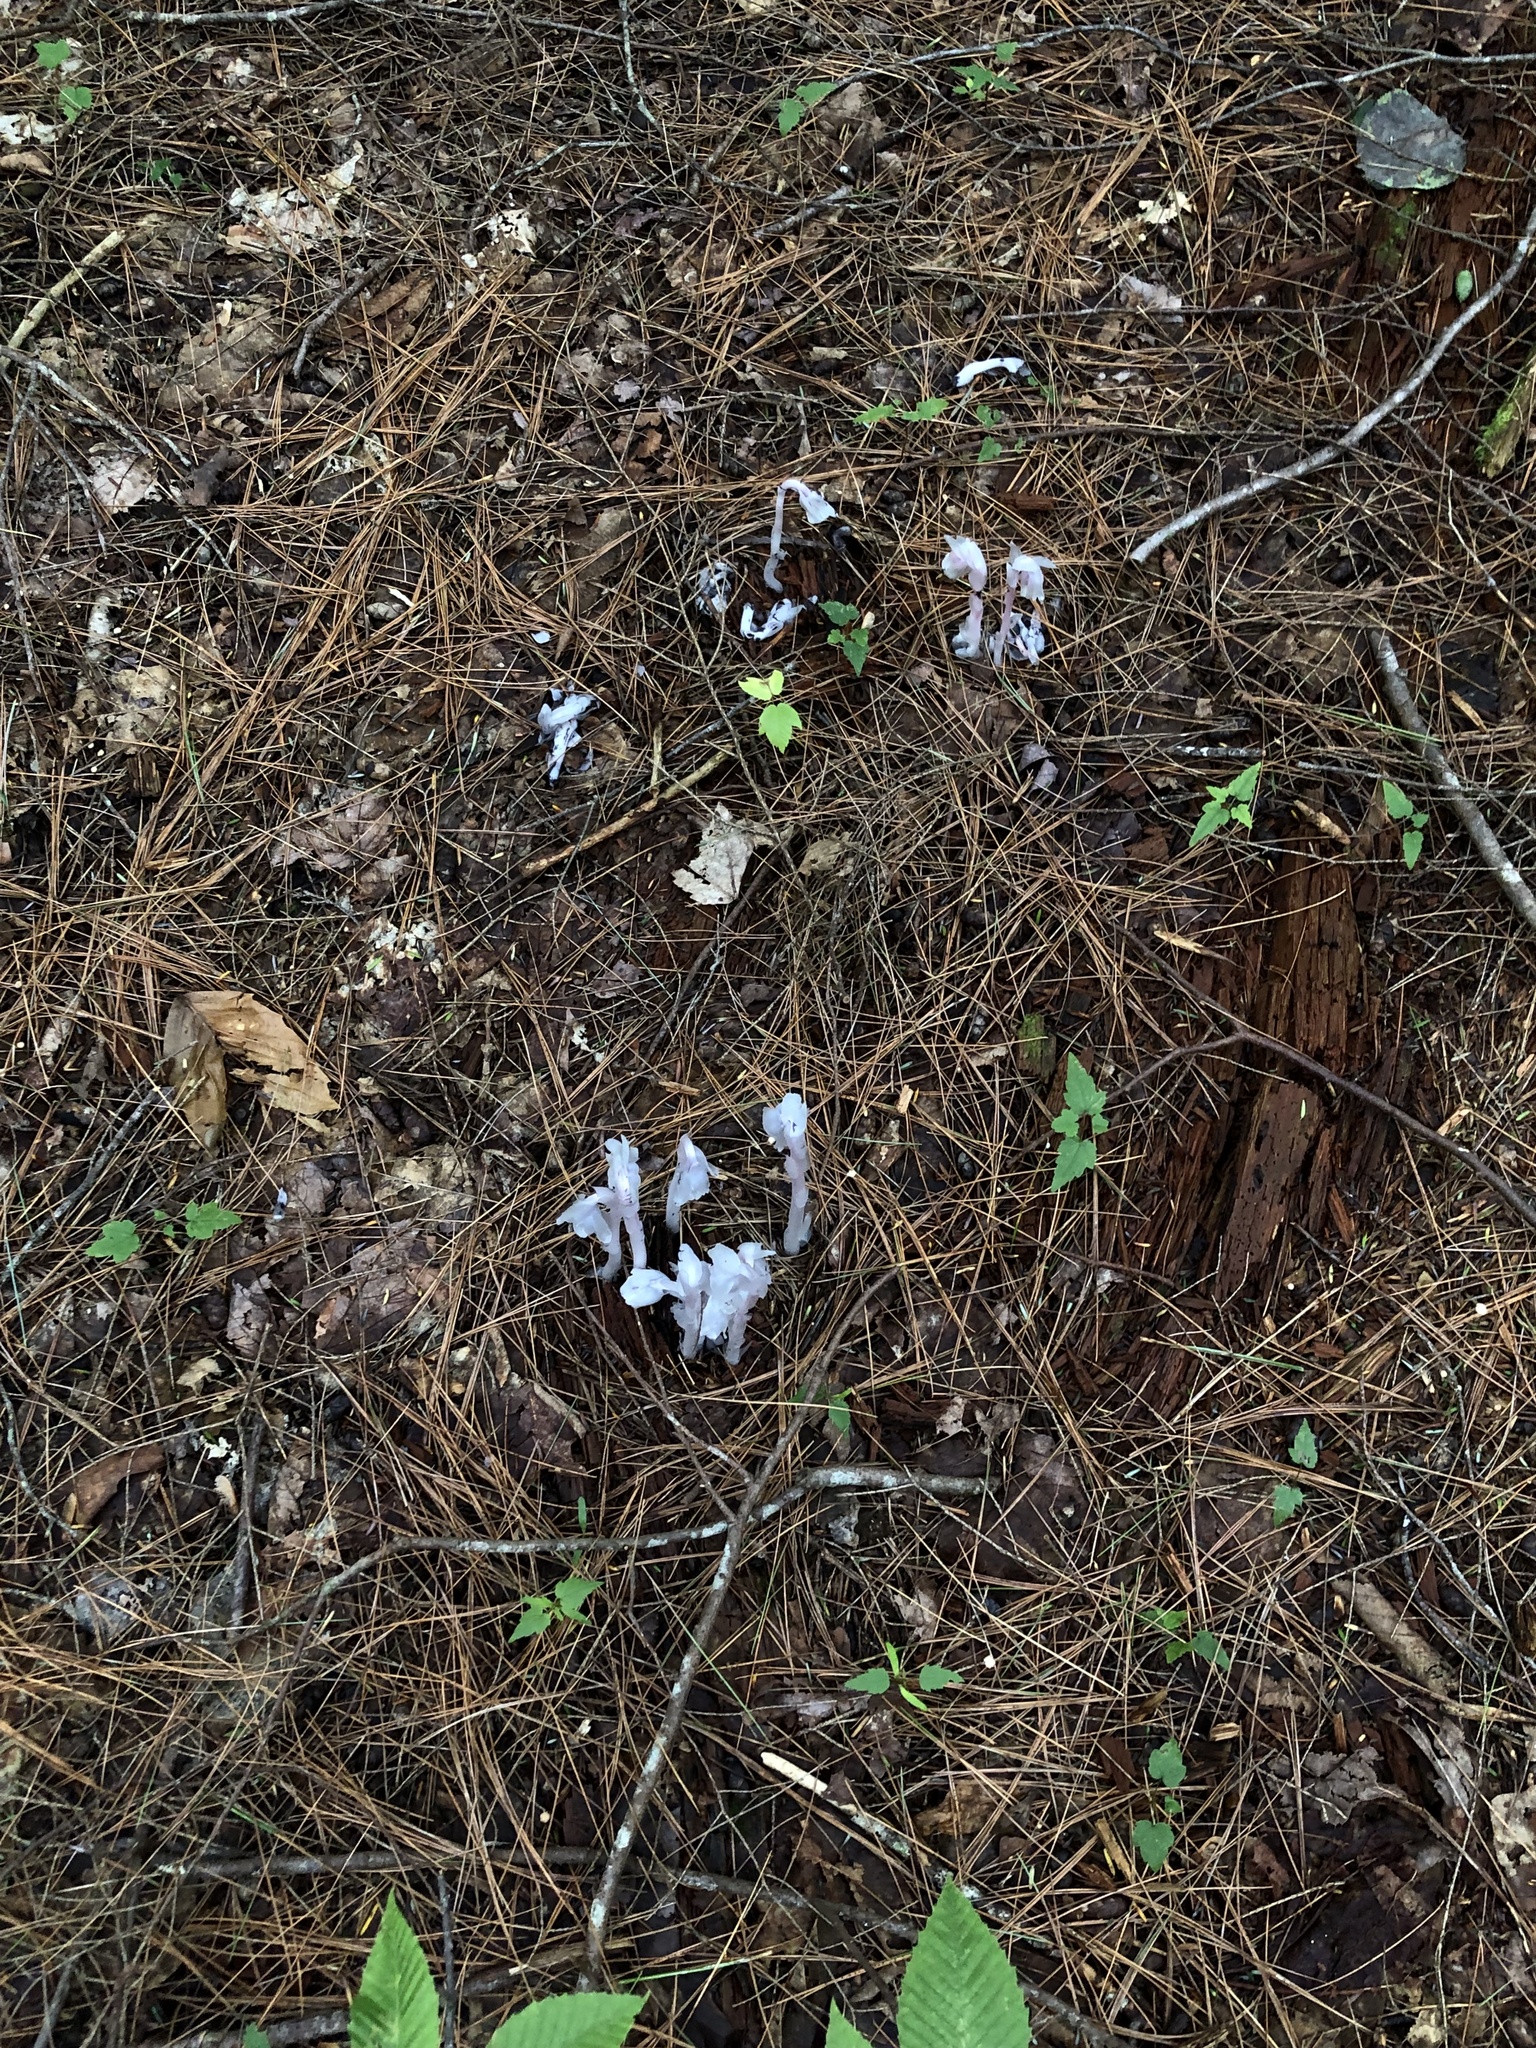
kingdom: Plantae
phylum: Tracheophyta
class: Magnoliopsida
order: Ericales
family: Ericaceae
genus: Monotropa
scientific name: Monotropa uniflora
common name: Convulsion root
